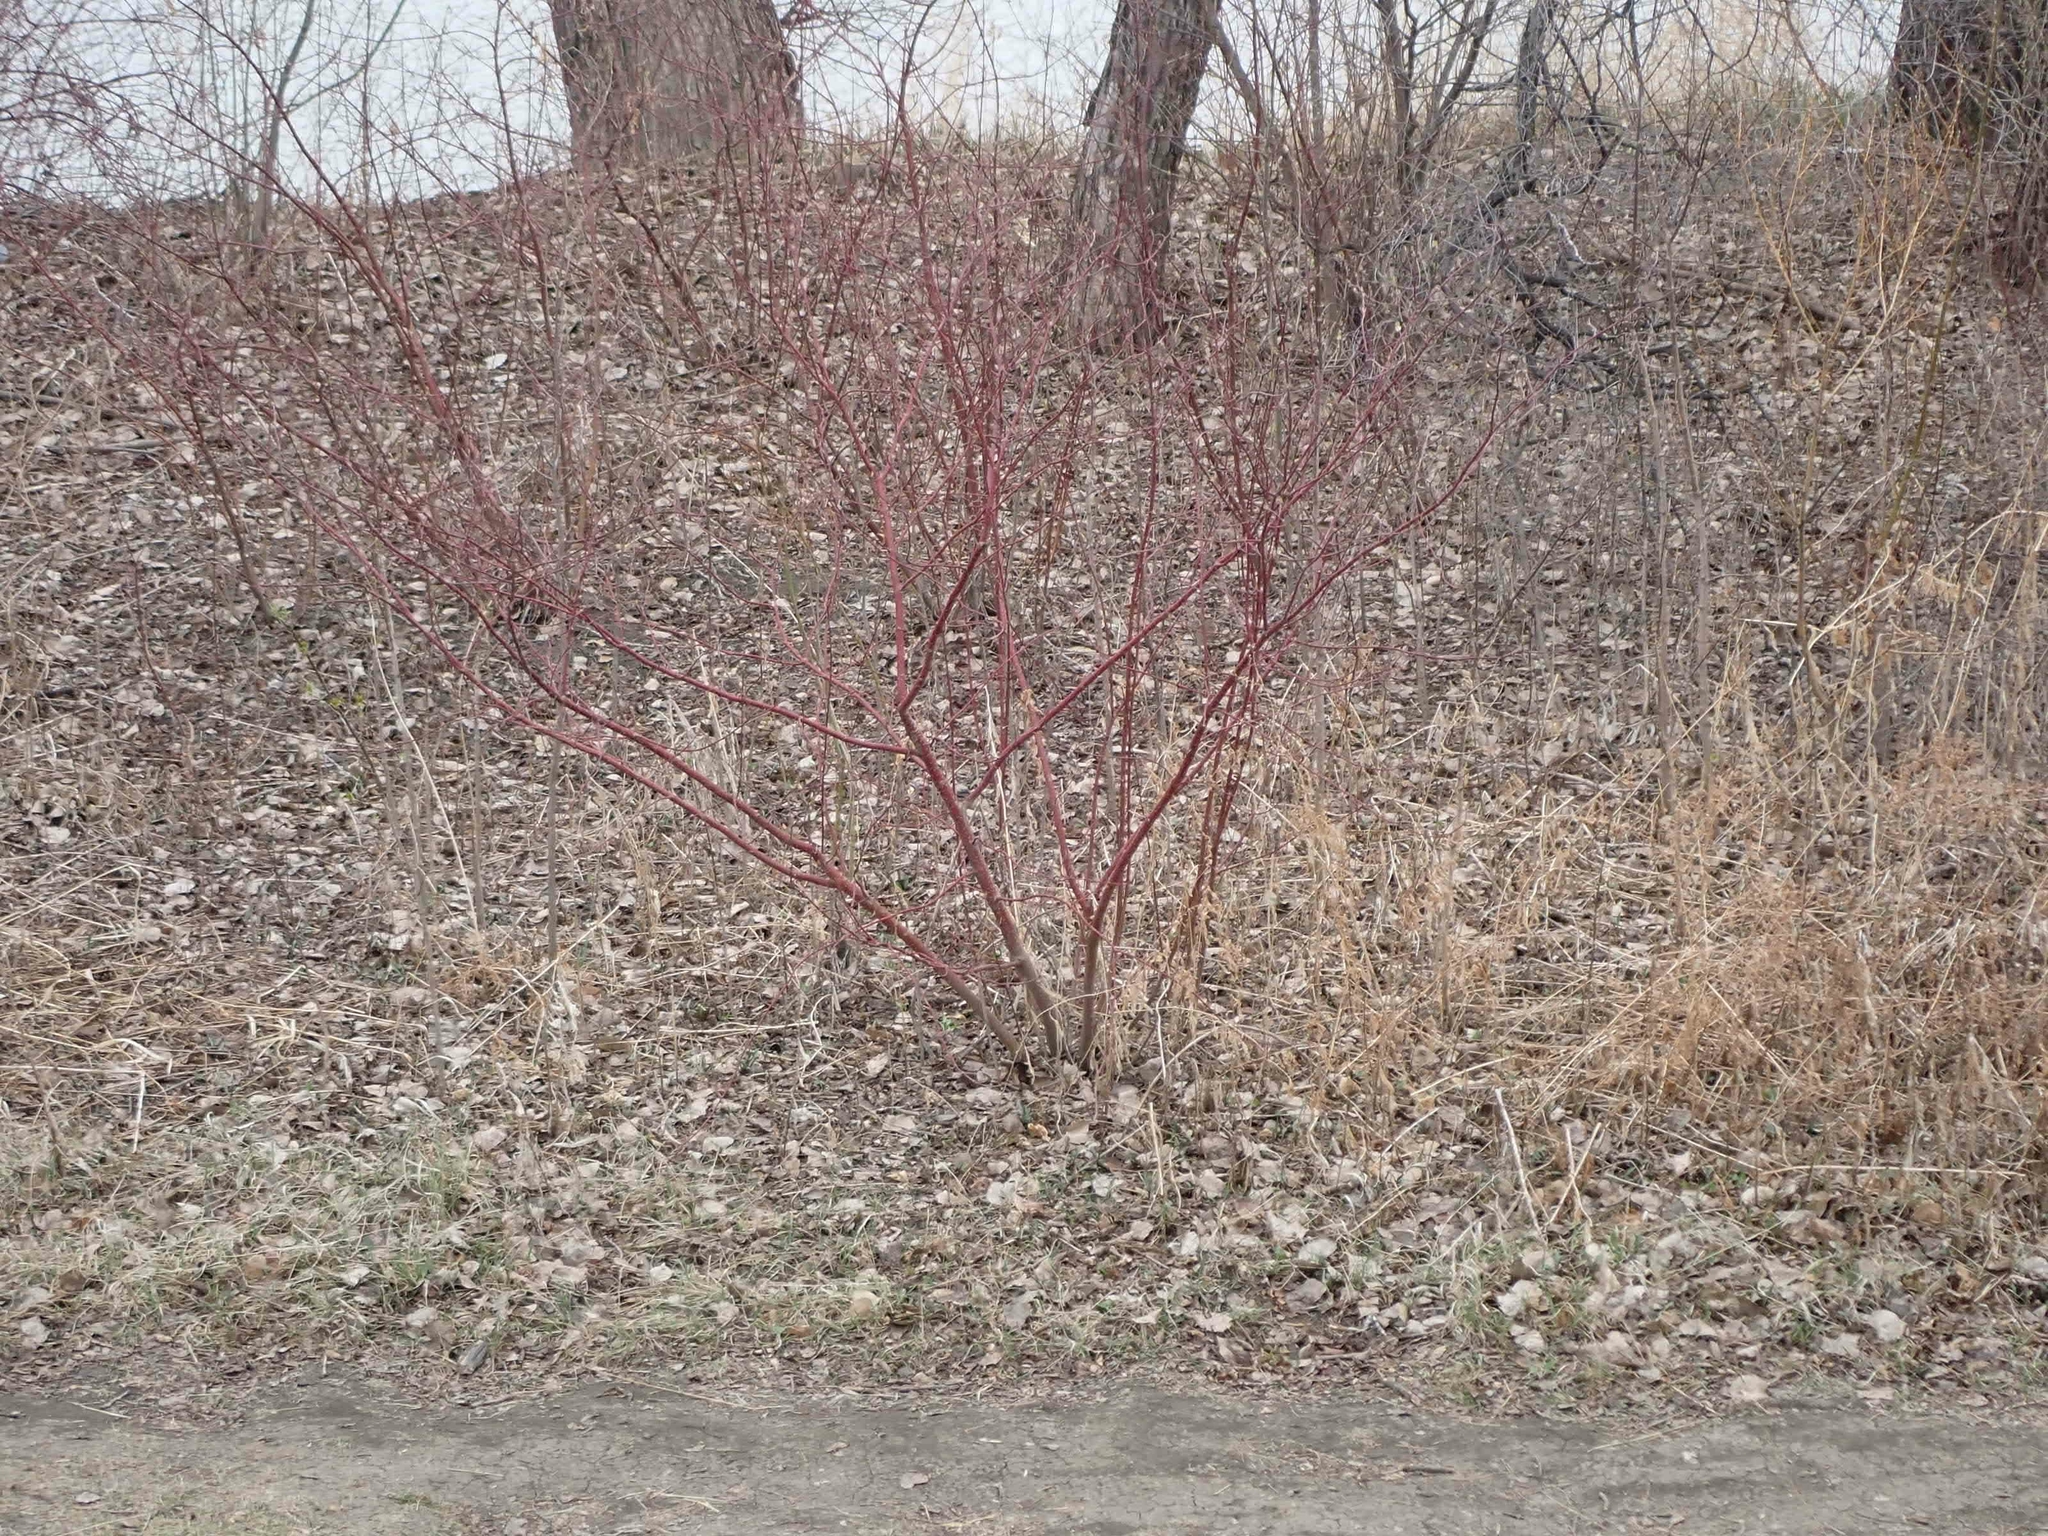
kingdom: Plantae
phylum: Tracheophyta
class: Magnoliopsida
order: Cornales
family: Cornaceae
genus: Cornus
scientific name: Cornus sericea
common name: Red-osier dogwood
